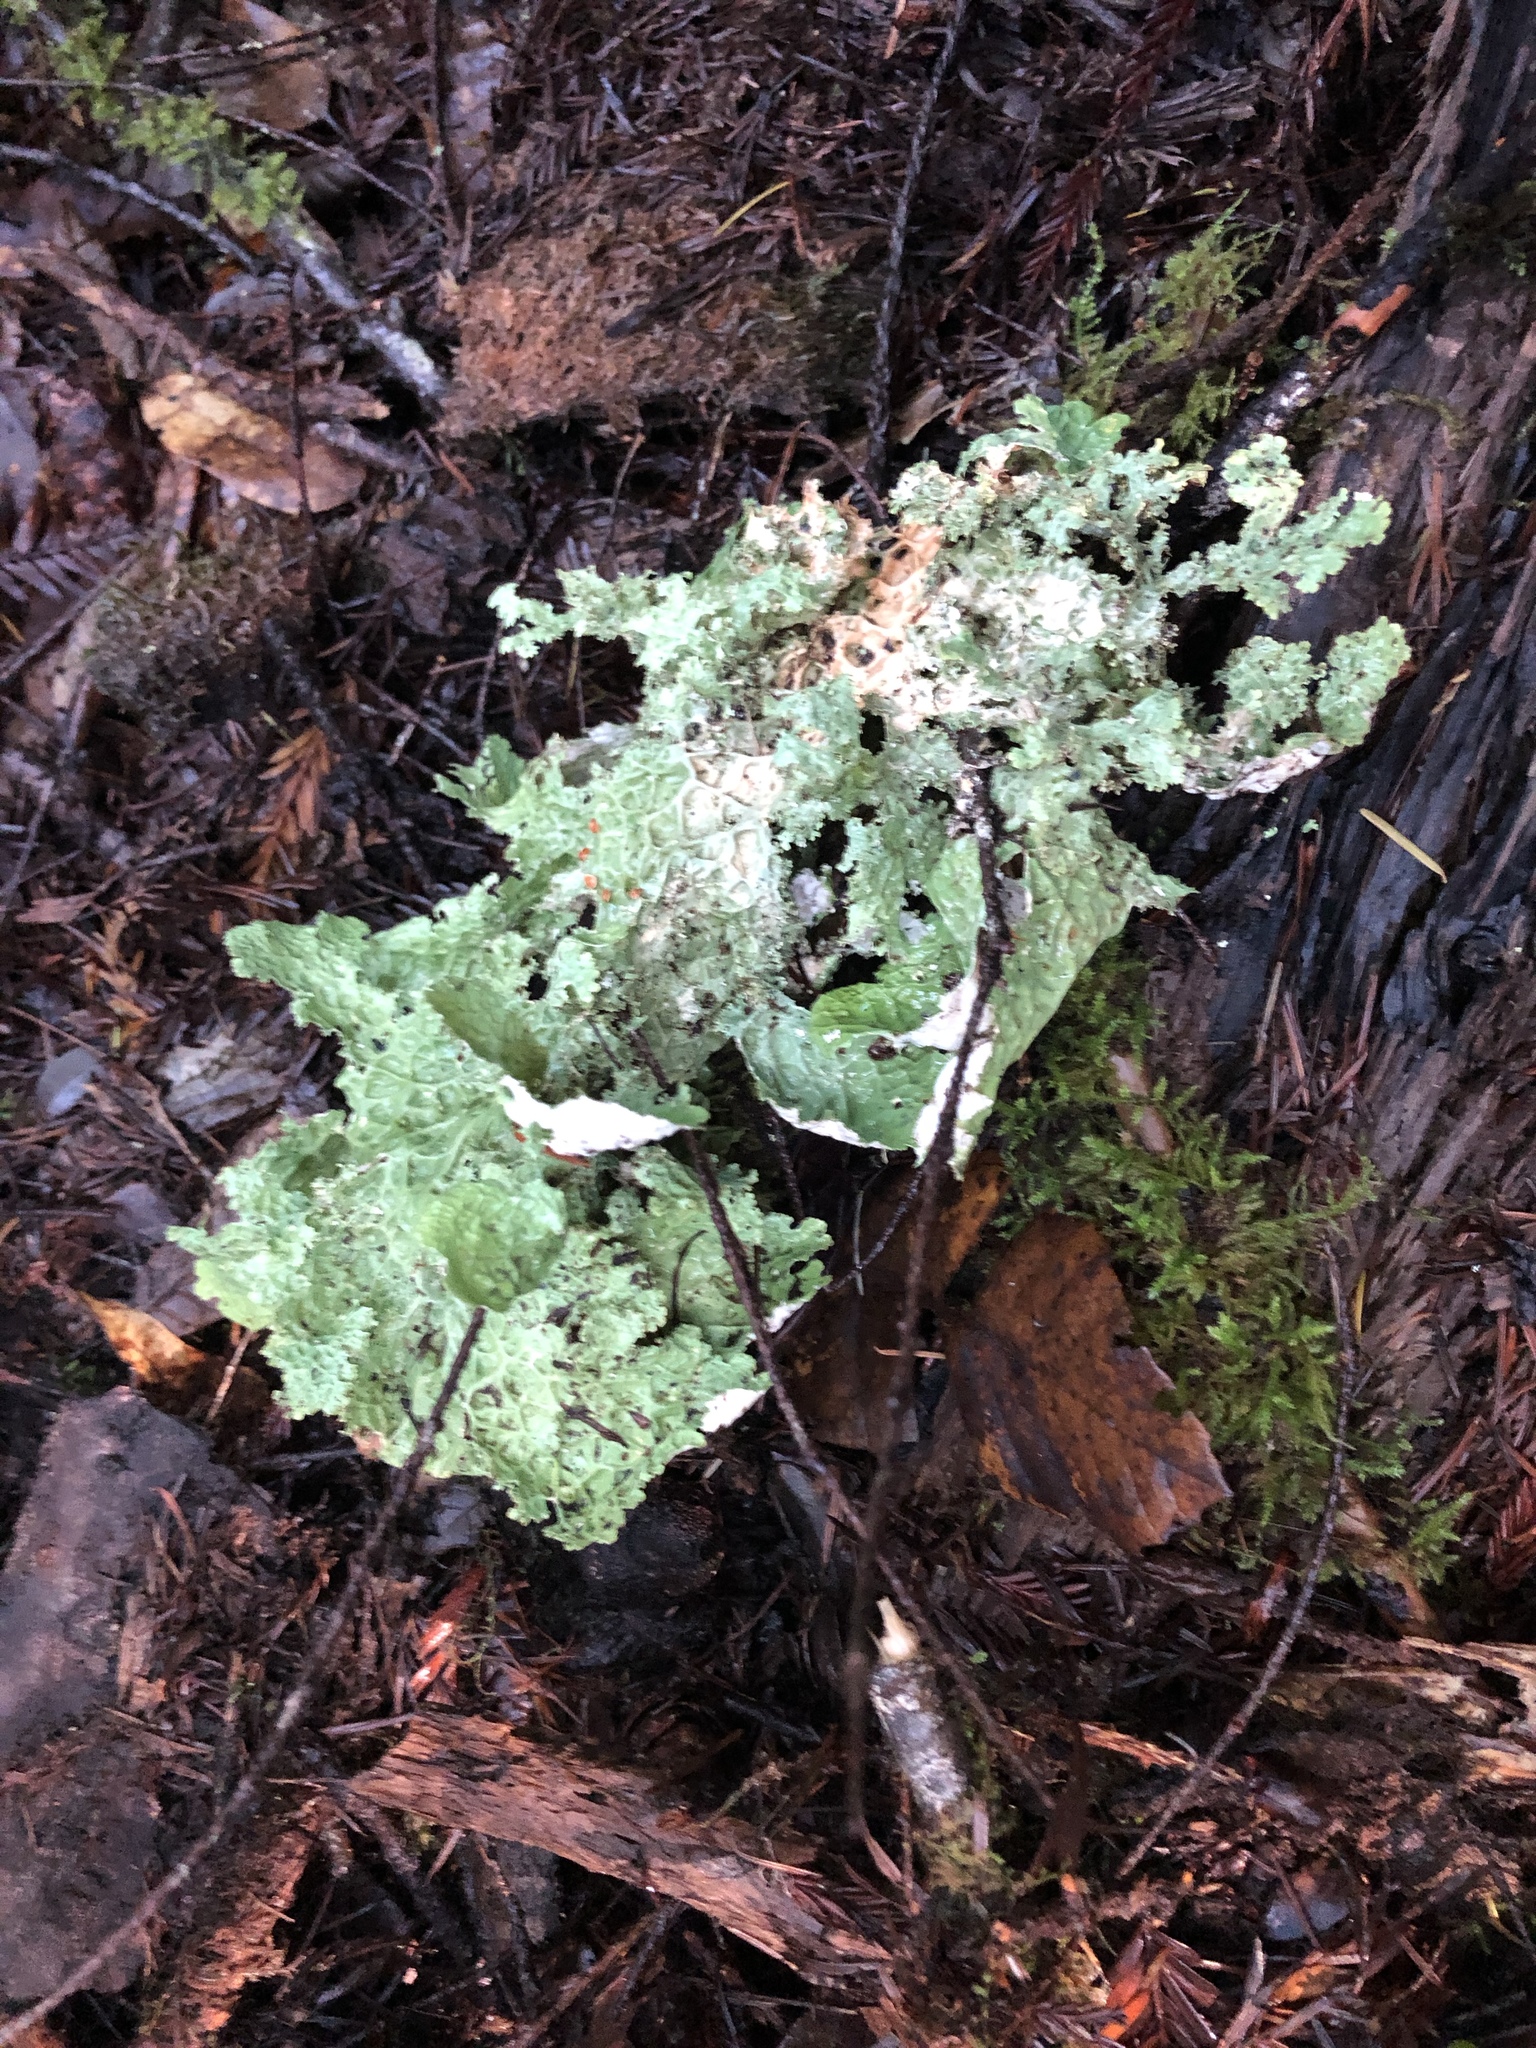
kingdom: Fungi
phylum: Ascomycota
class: Lecanoromycetes
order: Peltigerales
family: Lobariaceae
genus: Lobaria
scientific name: Lobaria oregana
